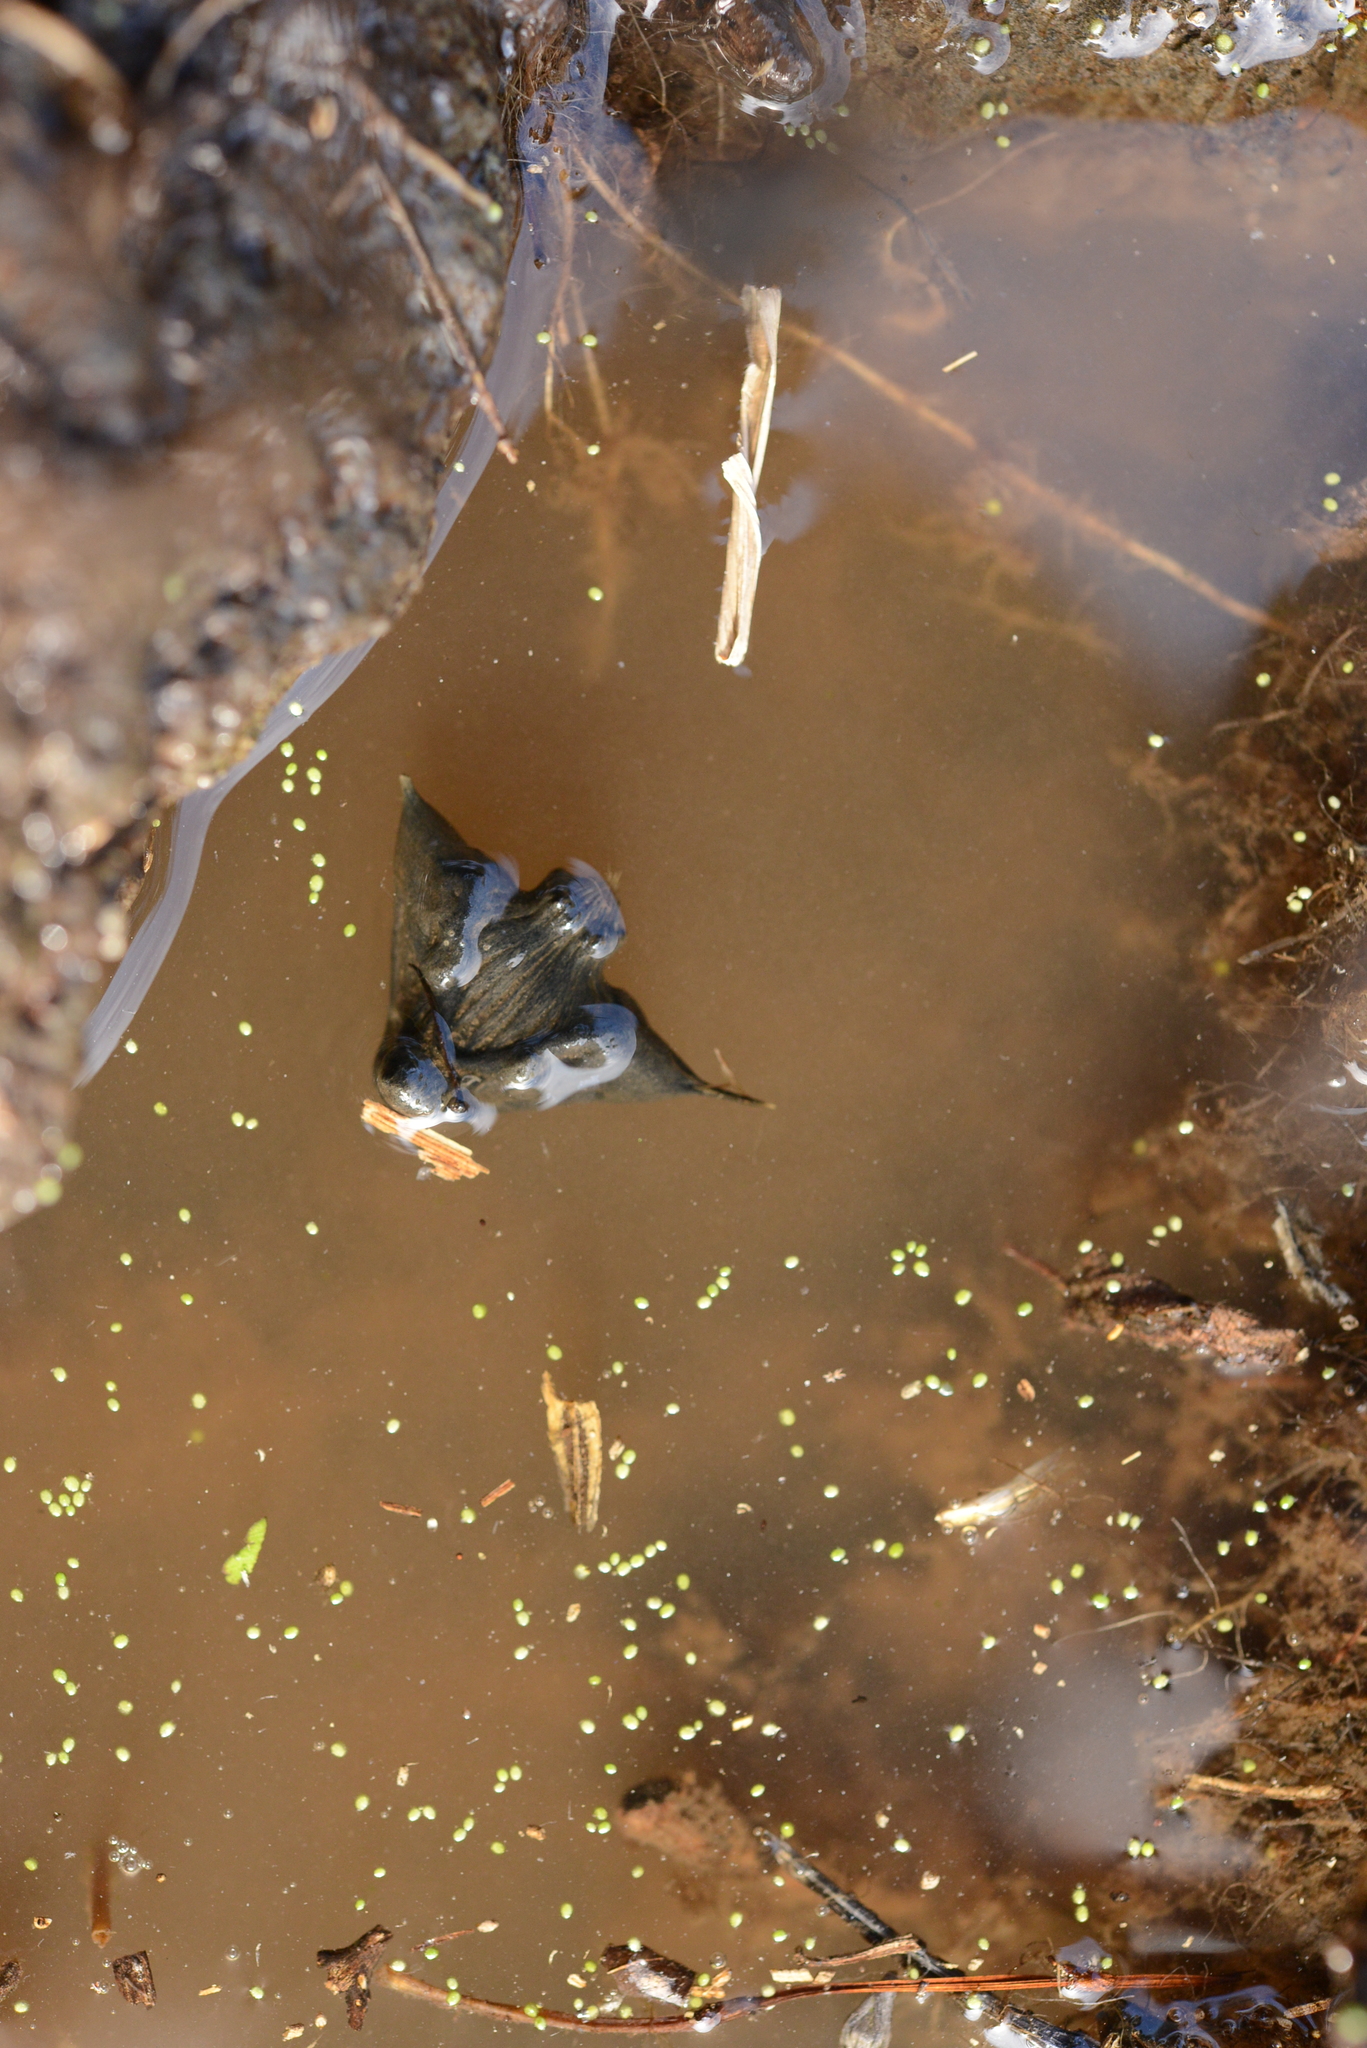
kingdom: Plantae
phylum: Tracheophyta
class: Magnoliopsida
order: Myrtales
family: Lythraceae
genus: Trapa
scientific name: Trapa natans
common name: Water chestnut
